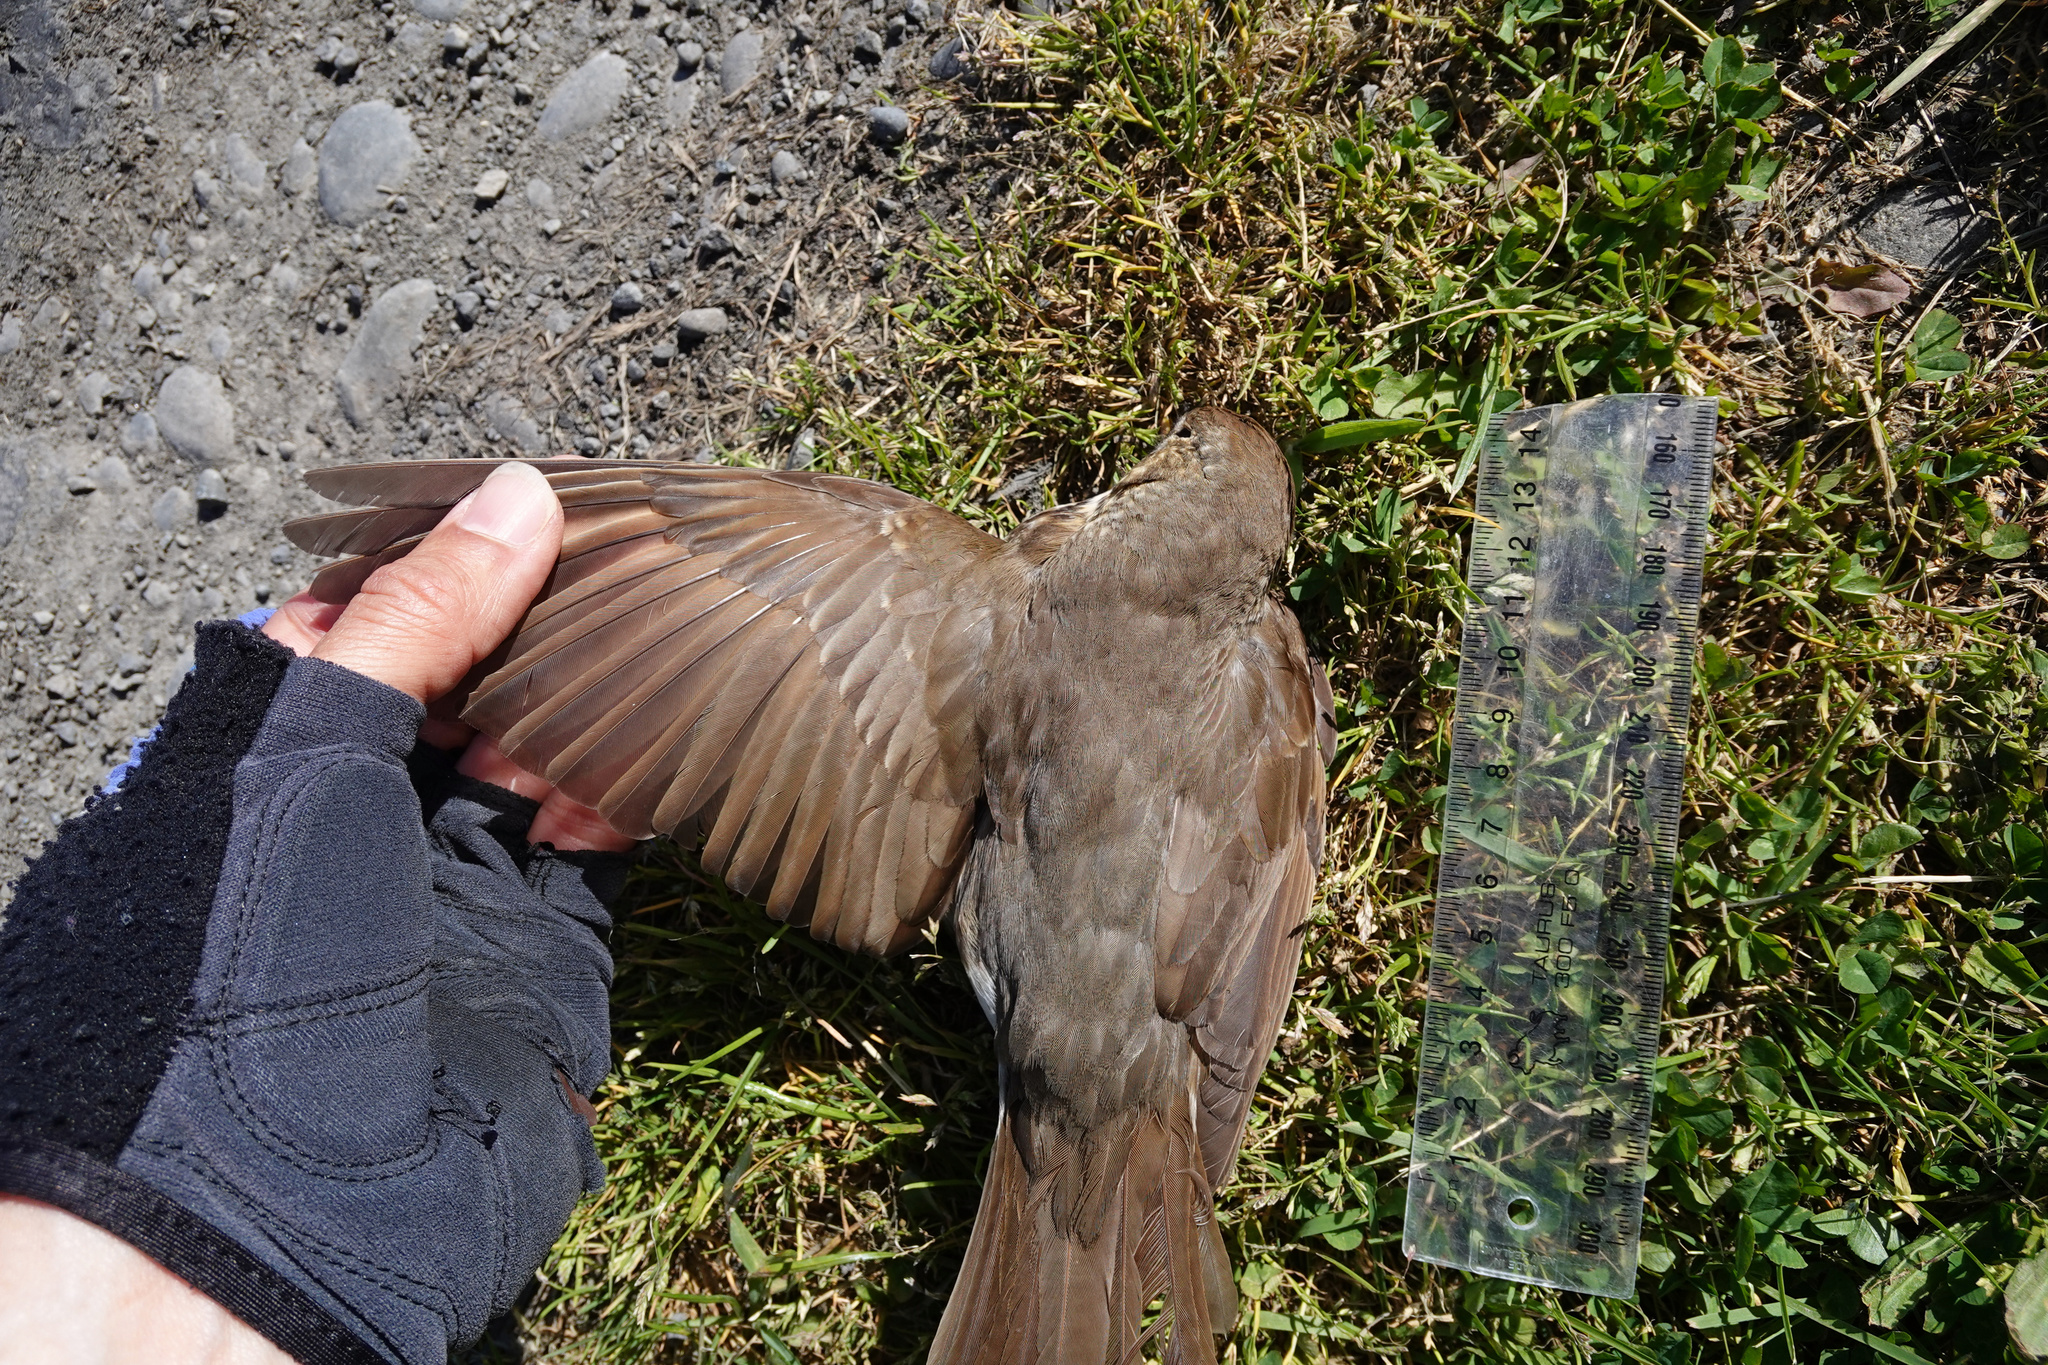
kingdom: Animalia
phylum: Chordata
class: Aves
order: Passeriformes
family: Turdidae
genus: Turdus
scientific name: Turdus philomelos
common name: Song thrush
